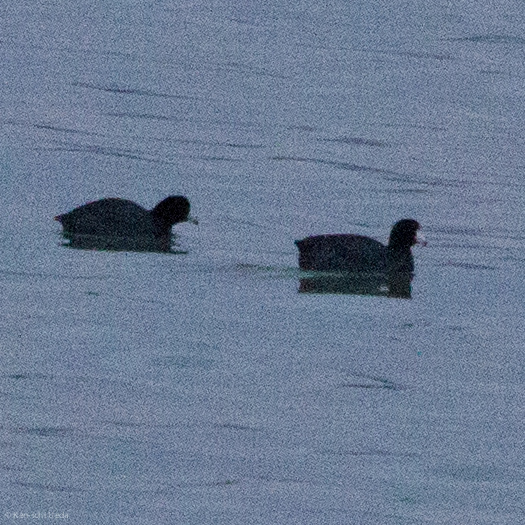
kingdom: Animalia
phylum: Chordata
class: Aves
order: Gruiformes
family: Rallidae
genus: Fulica
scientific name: Fulica americana
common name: American coot
